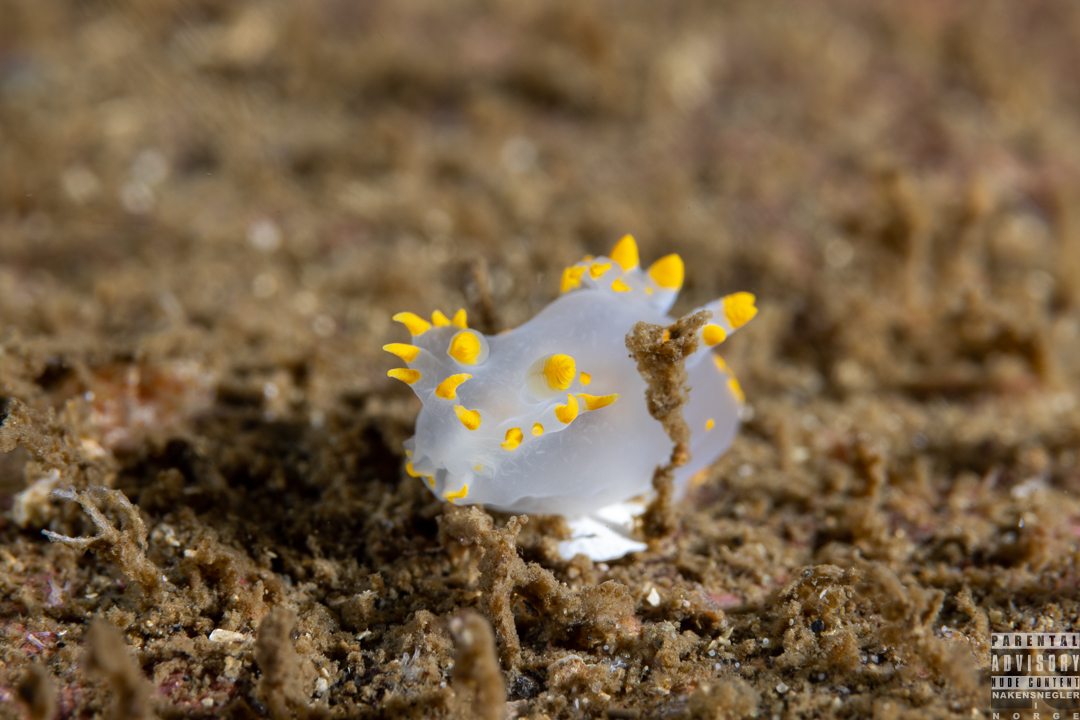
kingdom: Animalia
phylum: Mollusca
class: Gastropoda
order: Nudibranchia
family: Polyceridae
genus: Polycera
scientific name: Polycera faeroensis
